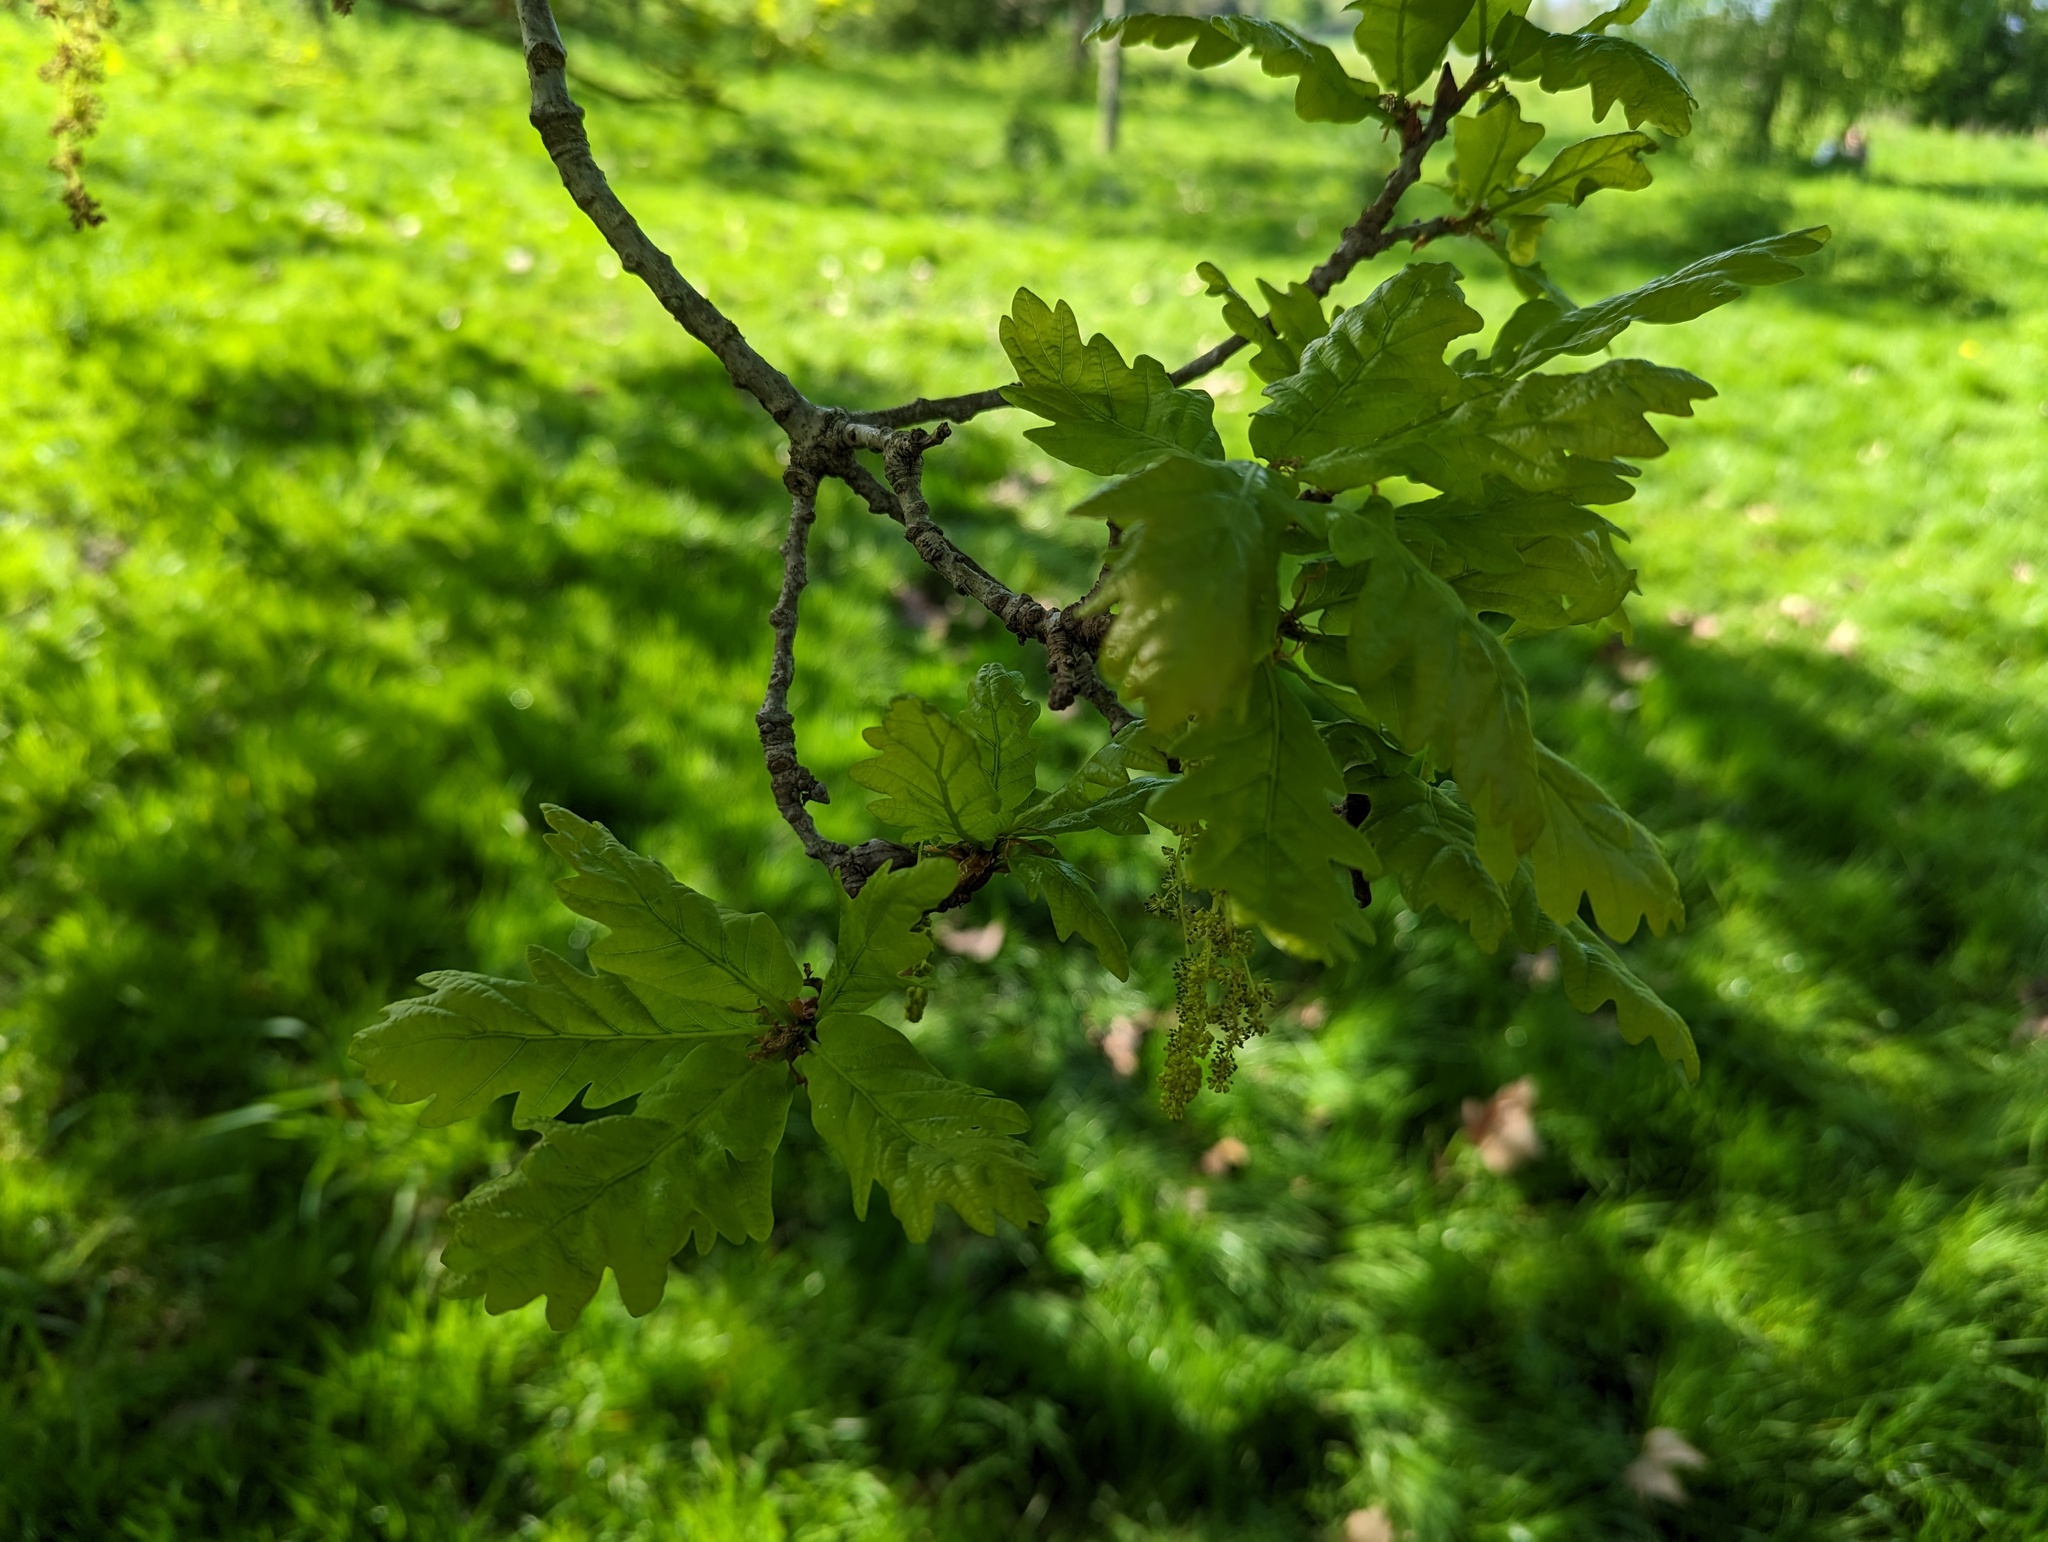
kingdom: Plantae
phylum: Tracheophyta
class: Magnoliopsida
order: Fagales
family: Fagaceae
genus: Quercus
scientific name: Quercus robur
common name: Pedunculate oak
